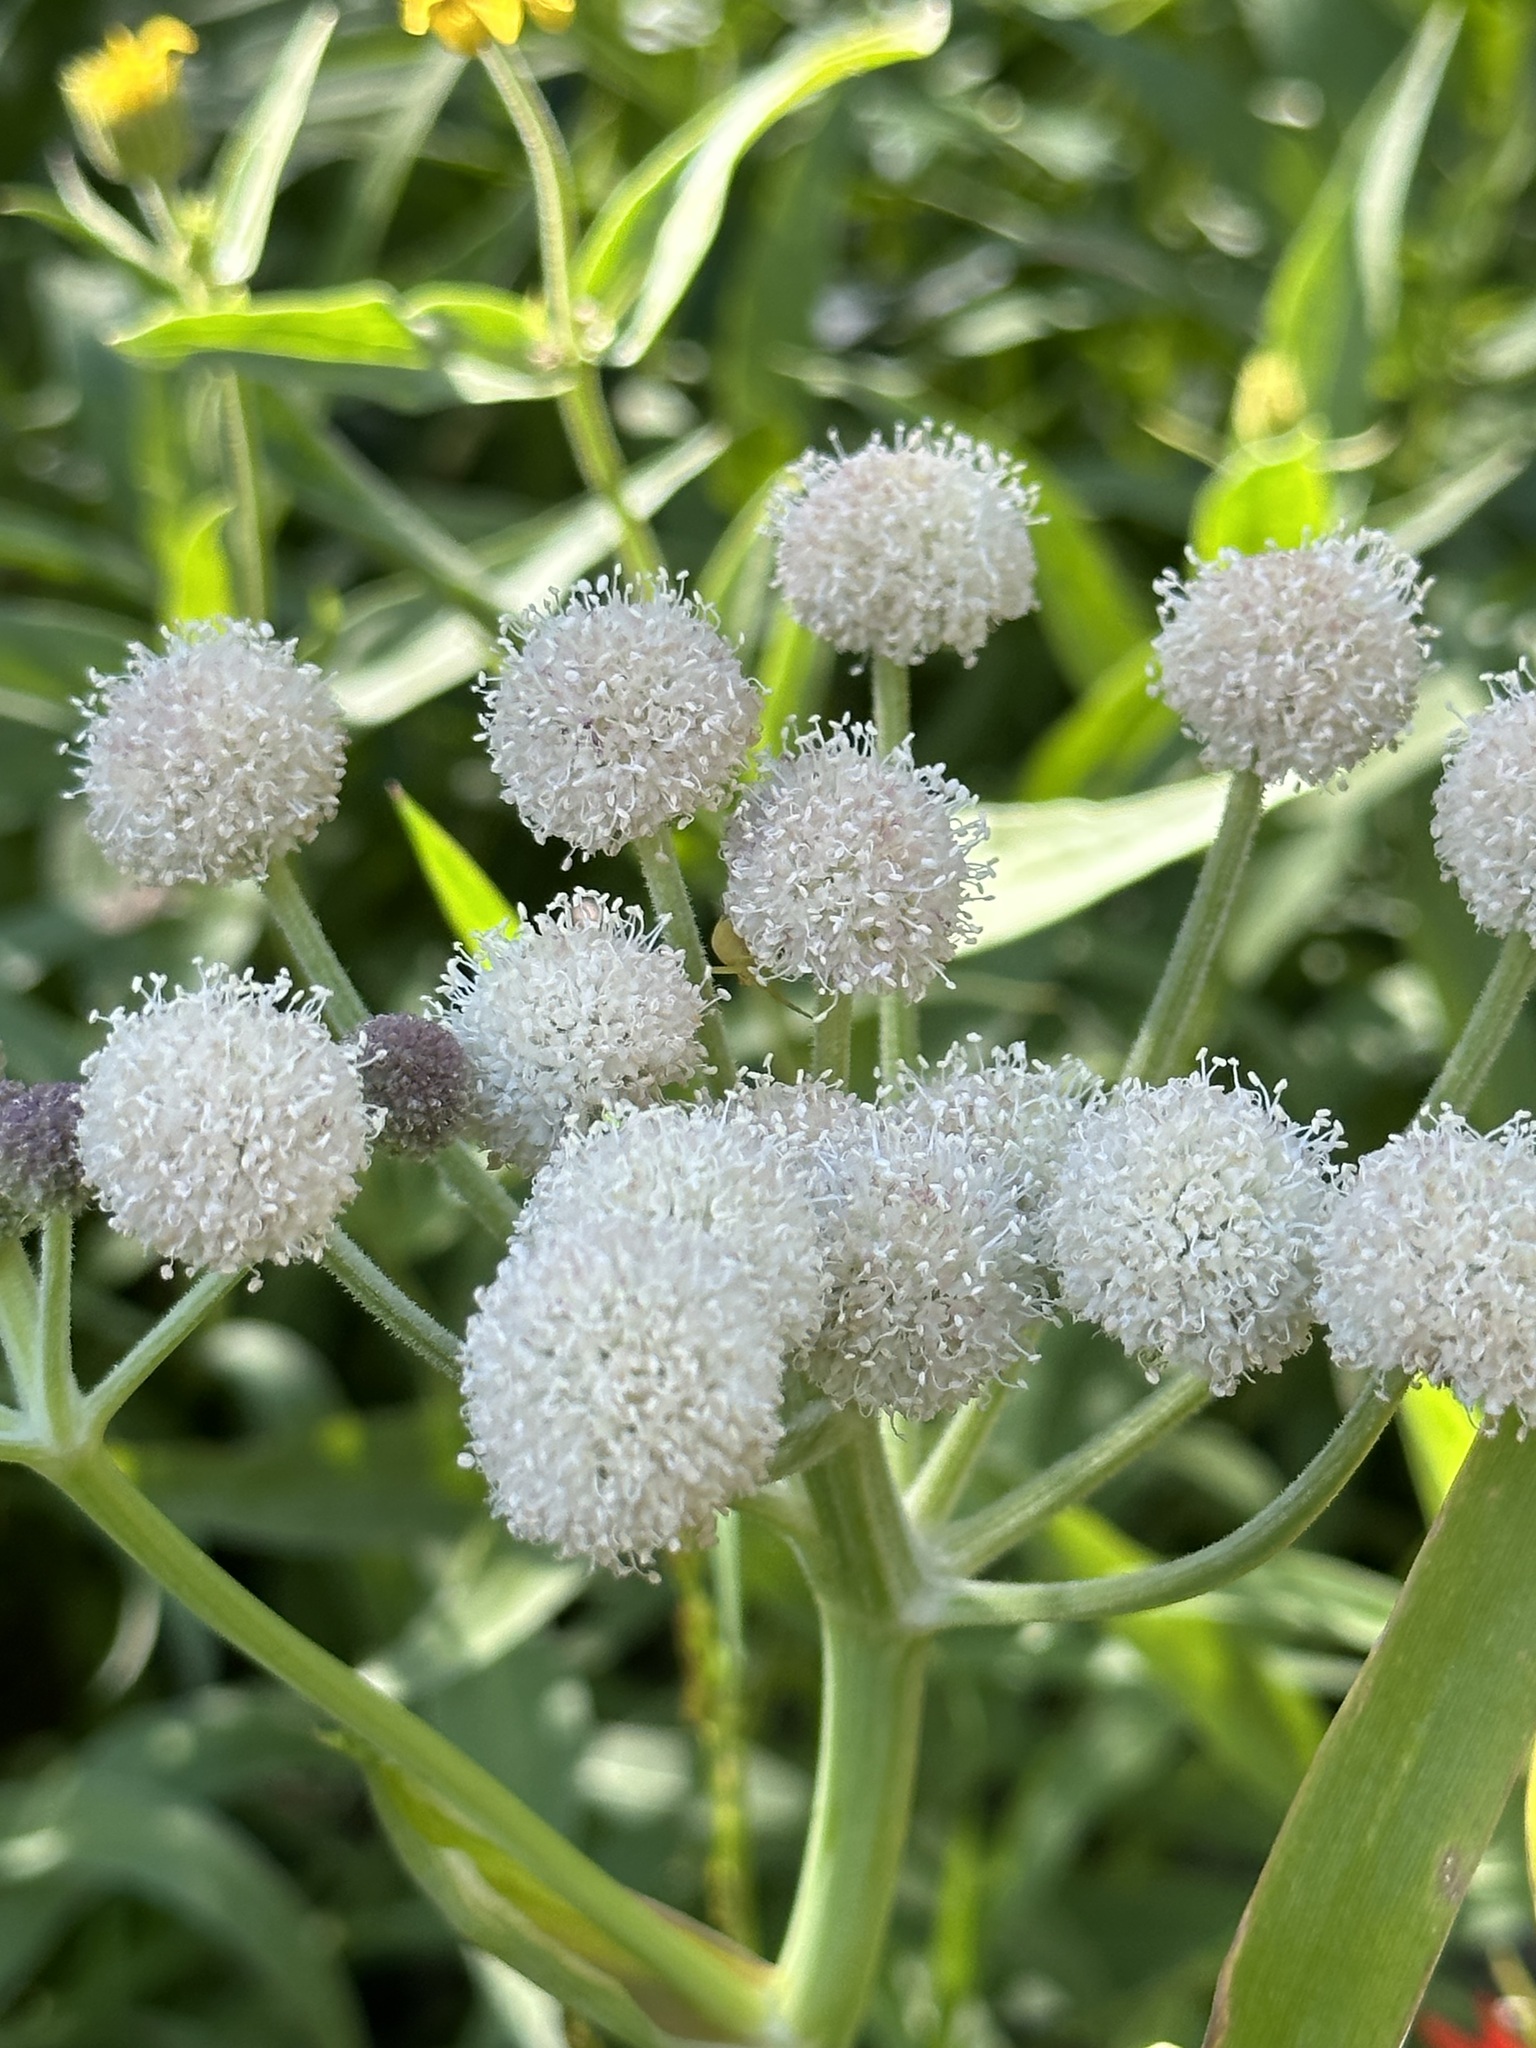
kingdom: Plantae
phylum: Tracheophyta
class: Magnoliopsida
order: Apiales
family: Apiaceae
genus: Angelica
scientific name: Angelica capitellata
